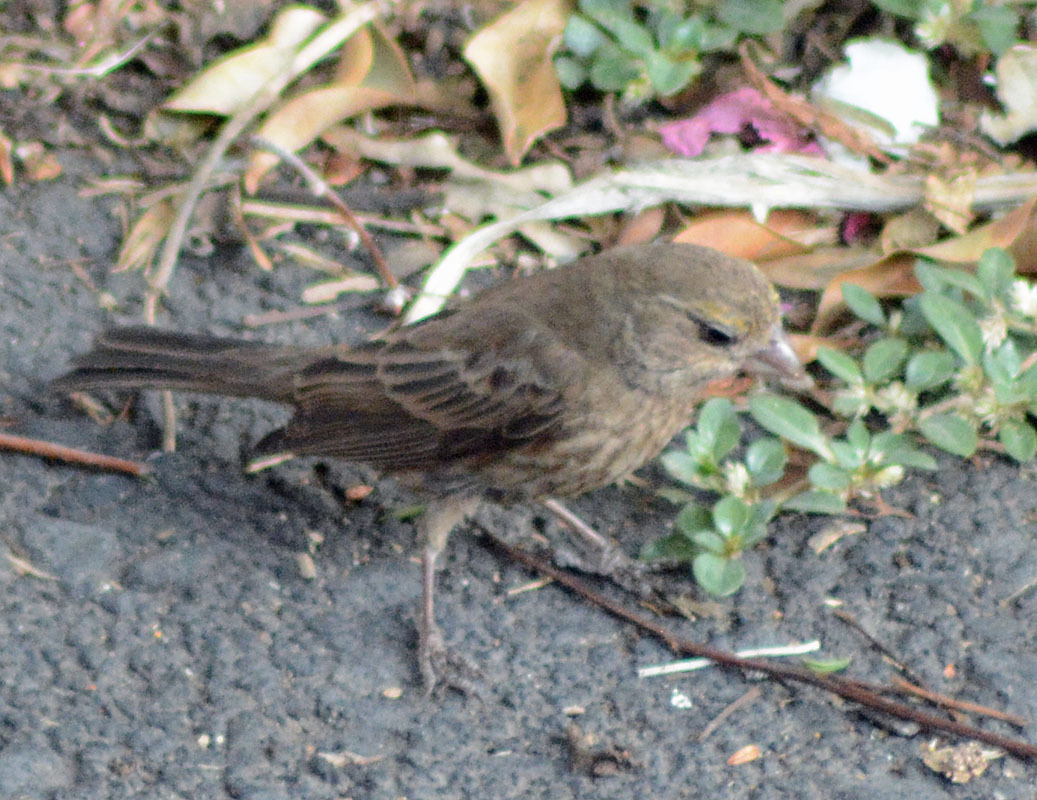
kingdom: Animalia
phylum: Chordata
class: Aves
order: Passeriformes
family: Fringillidae
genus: Haemorhous
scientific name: Haemorhous mexicanus
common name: House finch
